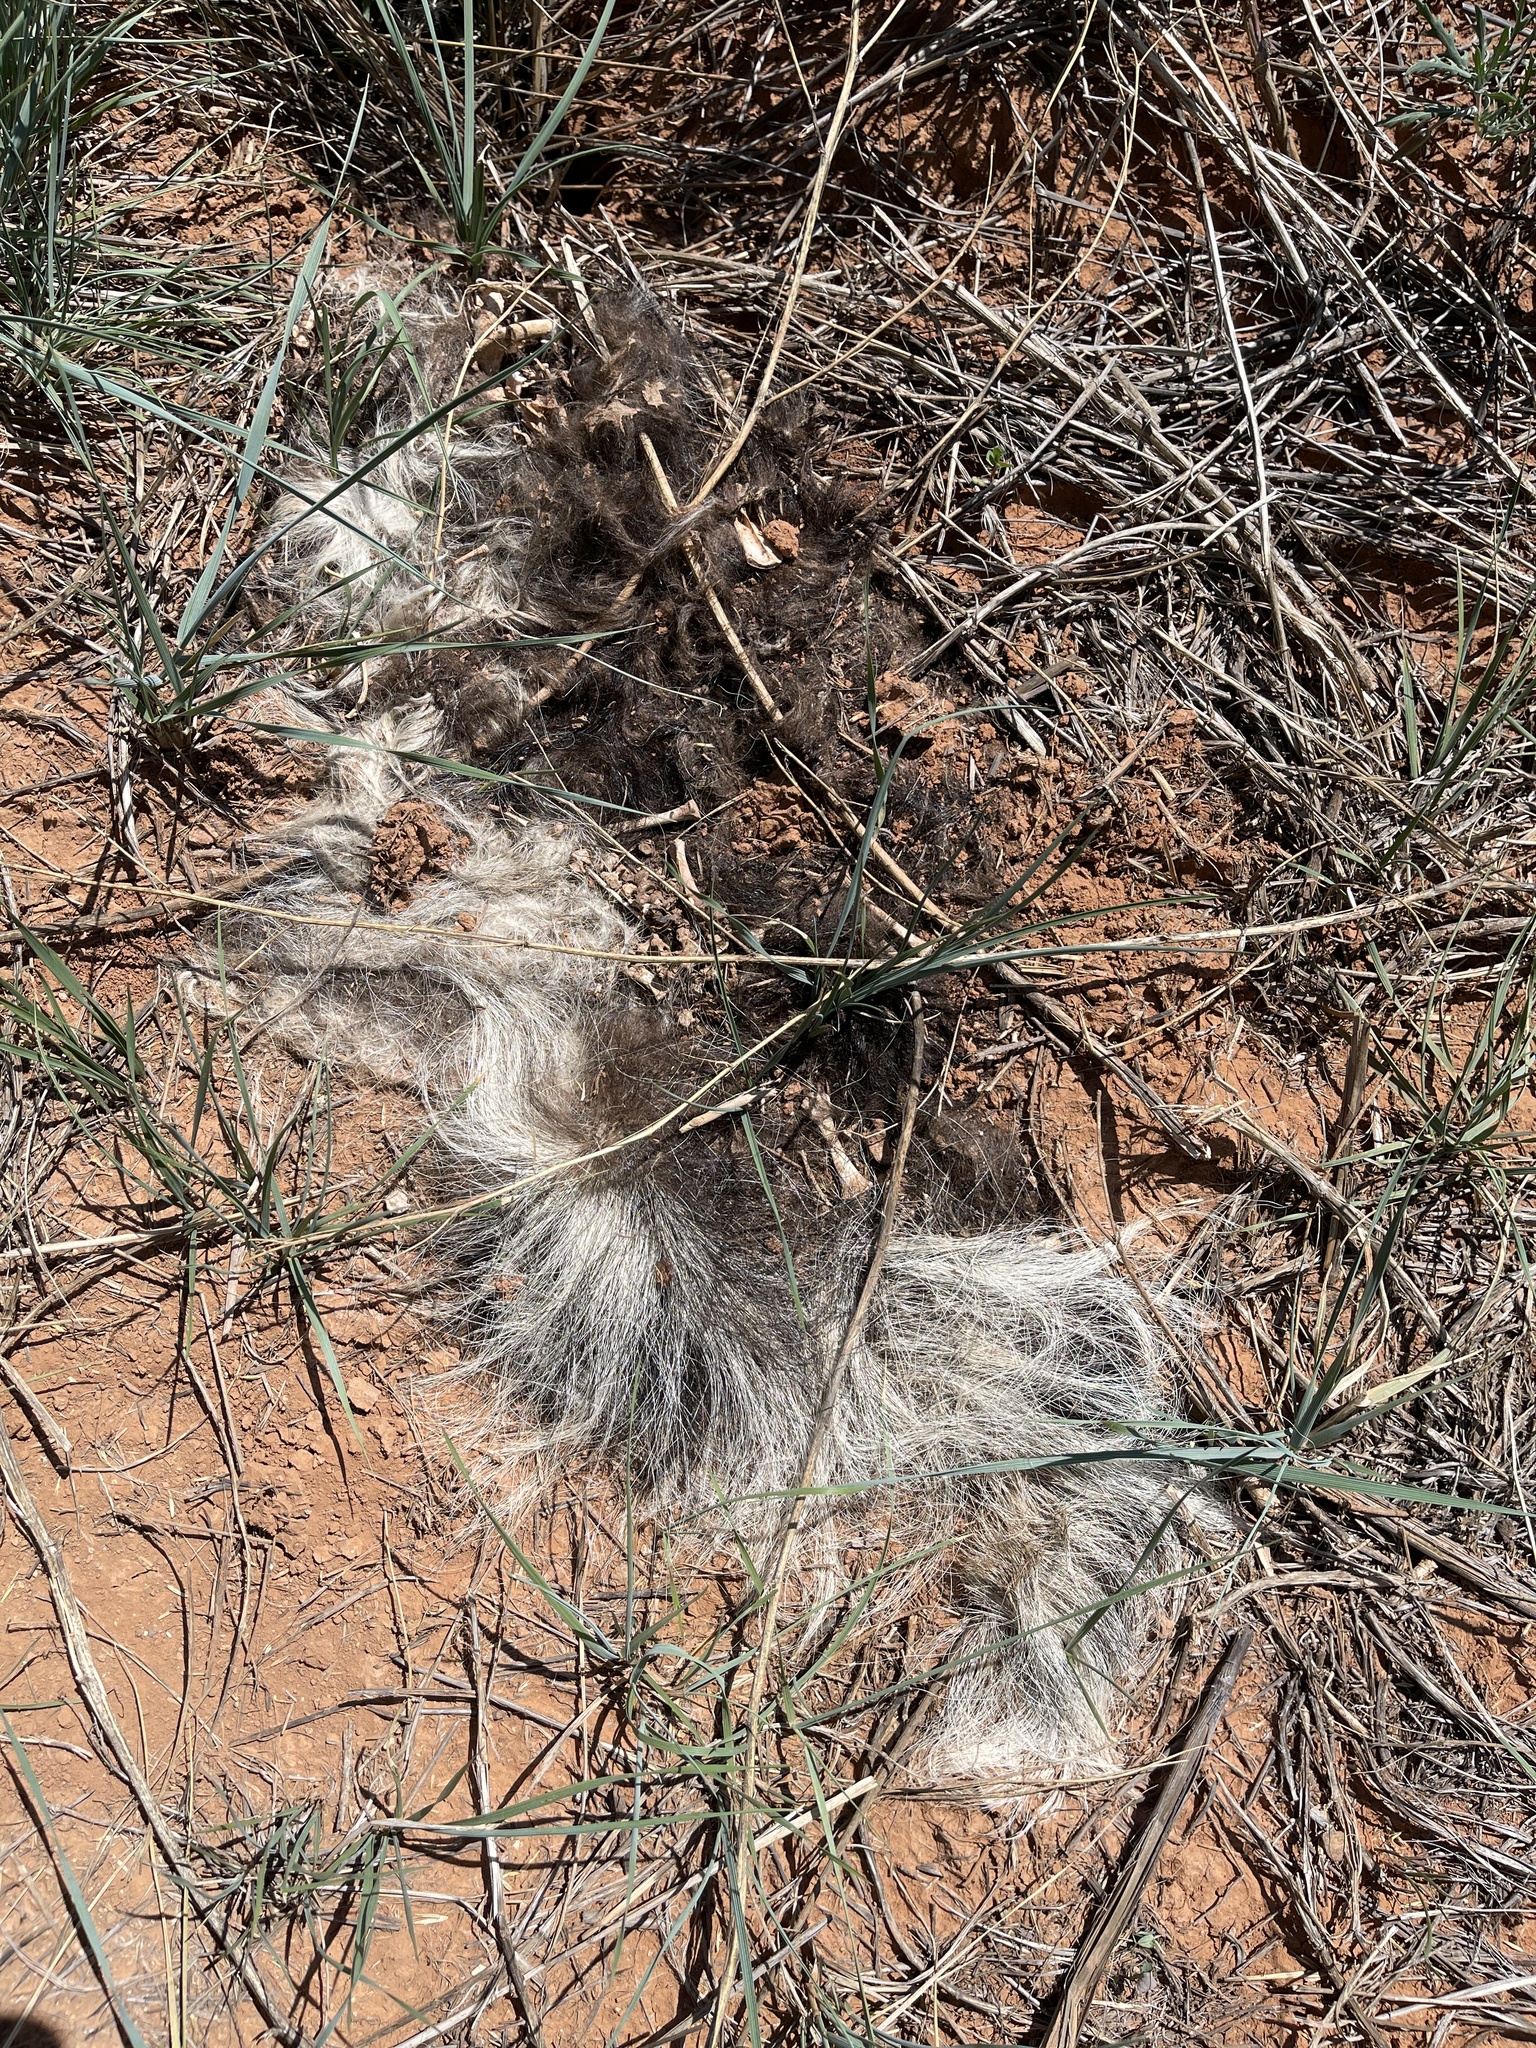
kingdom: Animalia
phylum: Chordata
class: Mammalia
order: Carnivora
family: Mephitidae
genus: Mephitis
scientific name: Mephitis mephitis
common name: Striped skunk
